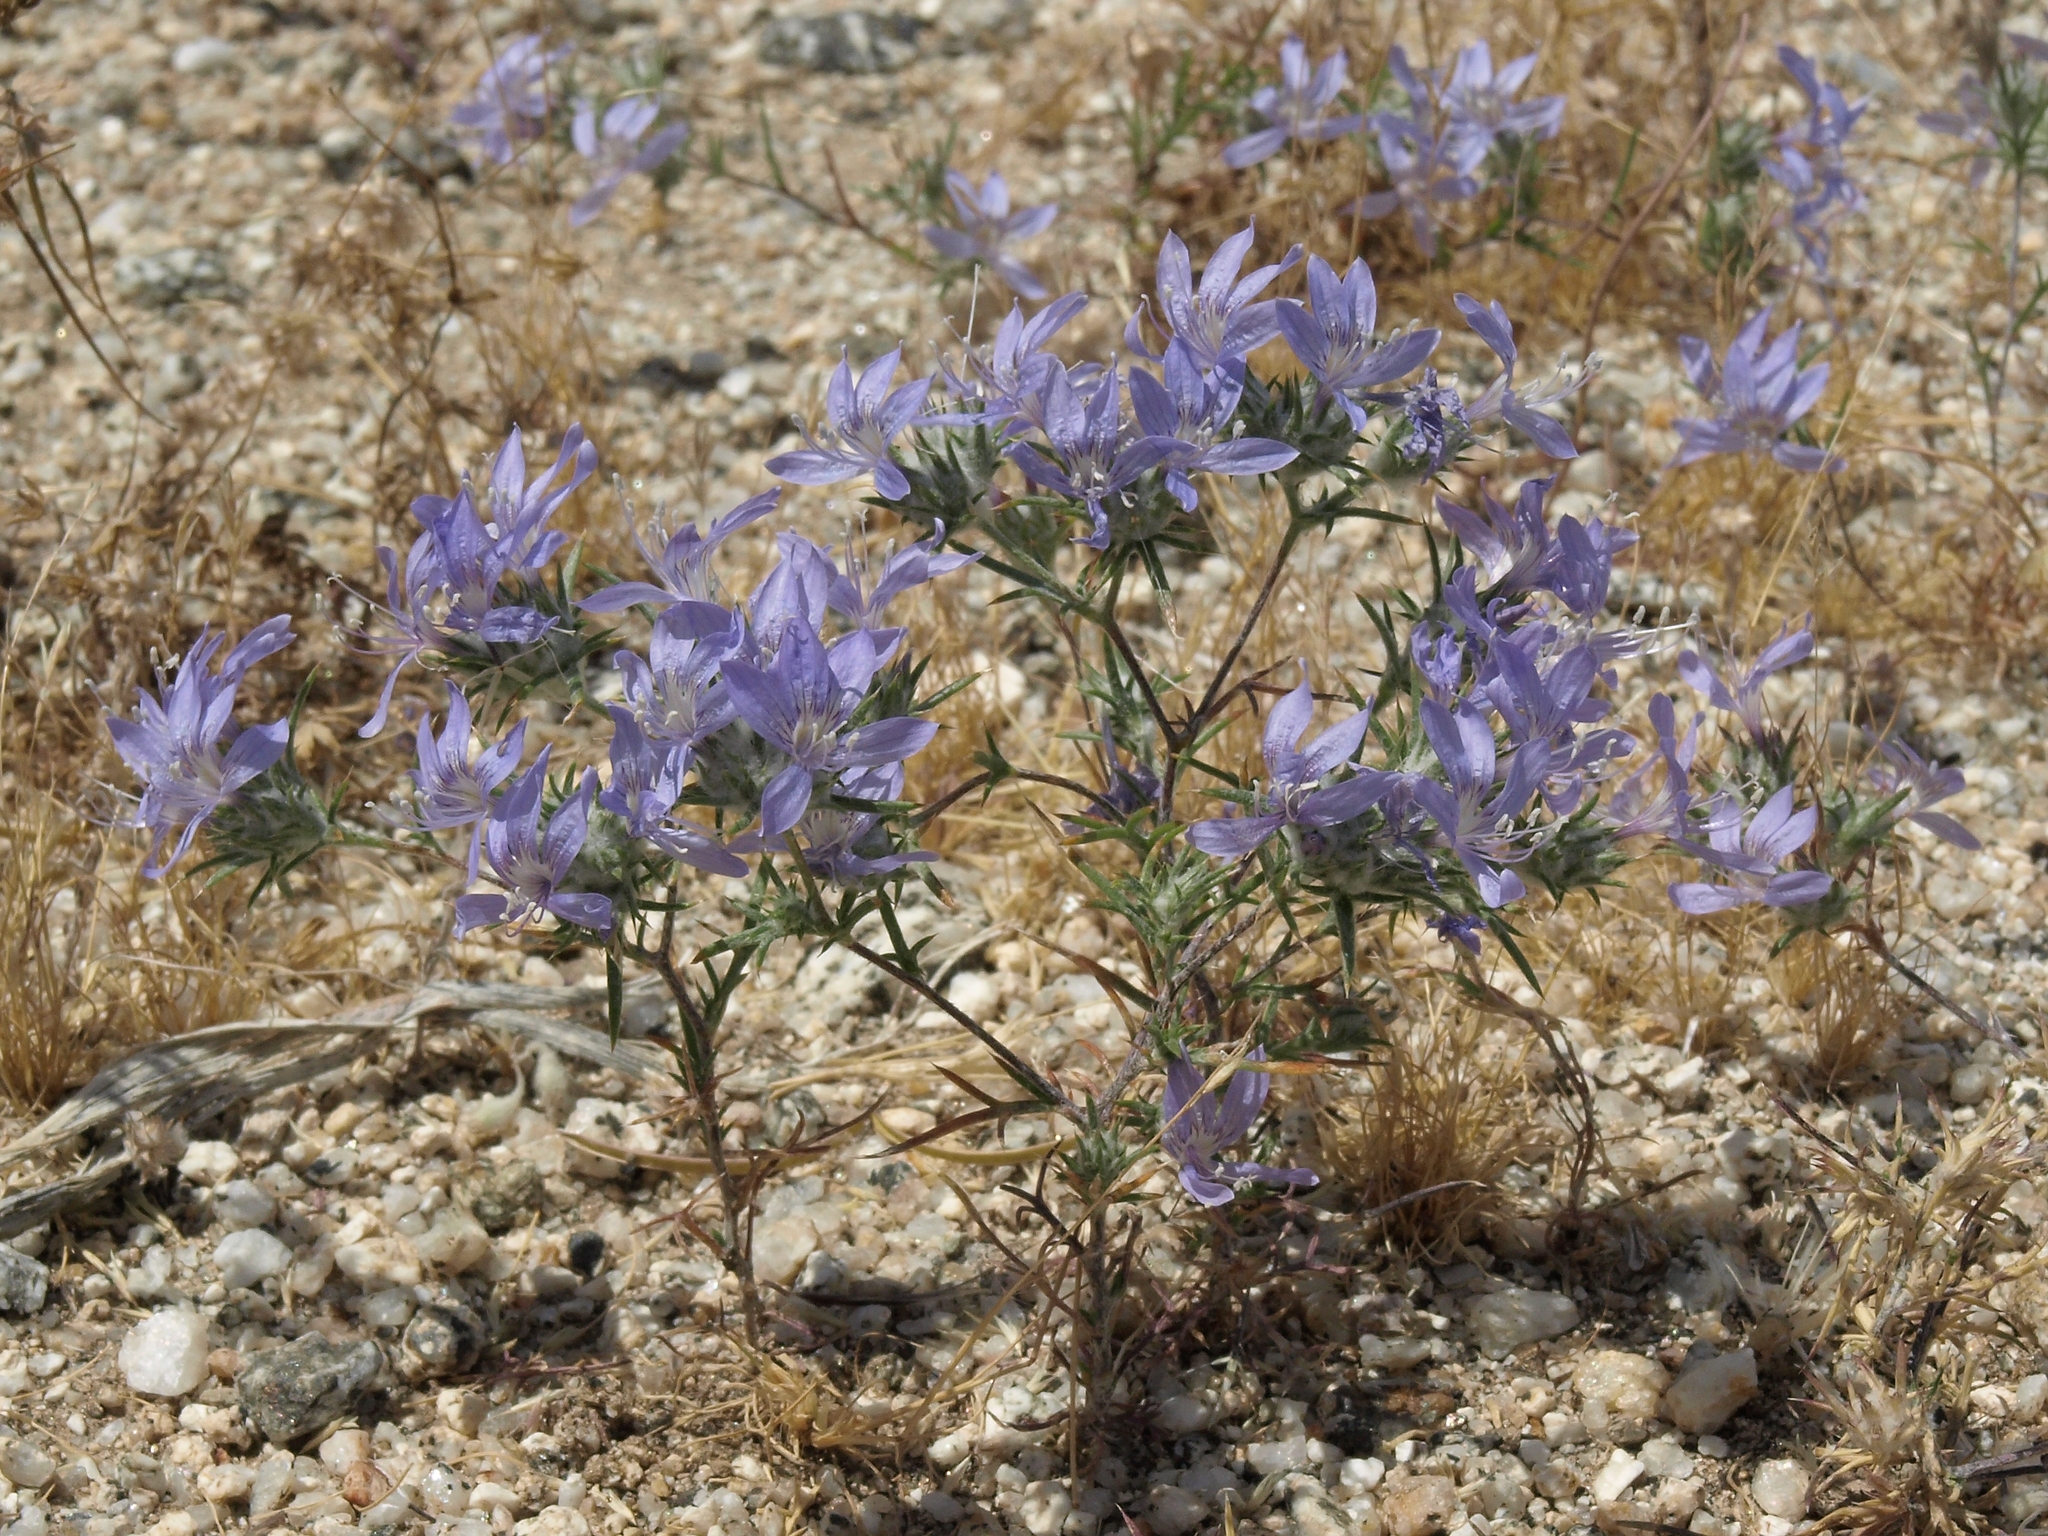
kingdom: Plantae
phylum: Tracheophyta
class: Magnoliopsida
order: Ericales
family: Polemoniaceae
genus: Eriastrum
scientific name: Eriastrum eremicum
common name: Desert eriastrum
